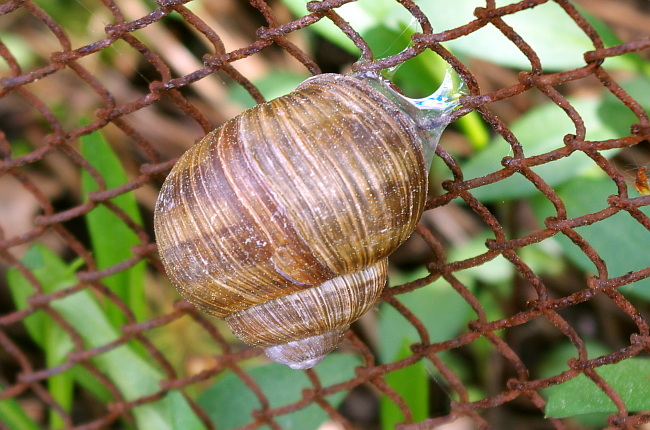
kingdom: Animalia
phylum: Mollusca
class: Gastropoda
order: Stylommatophora
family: Helicidae
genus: Helix
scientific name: Helix pomatia
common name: Roman snail
